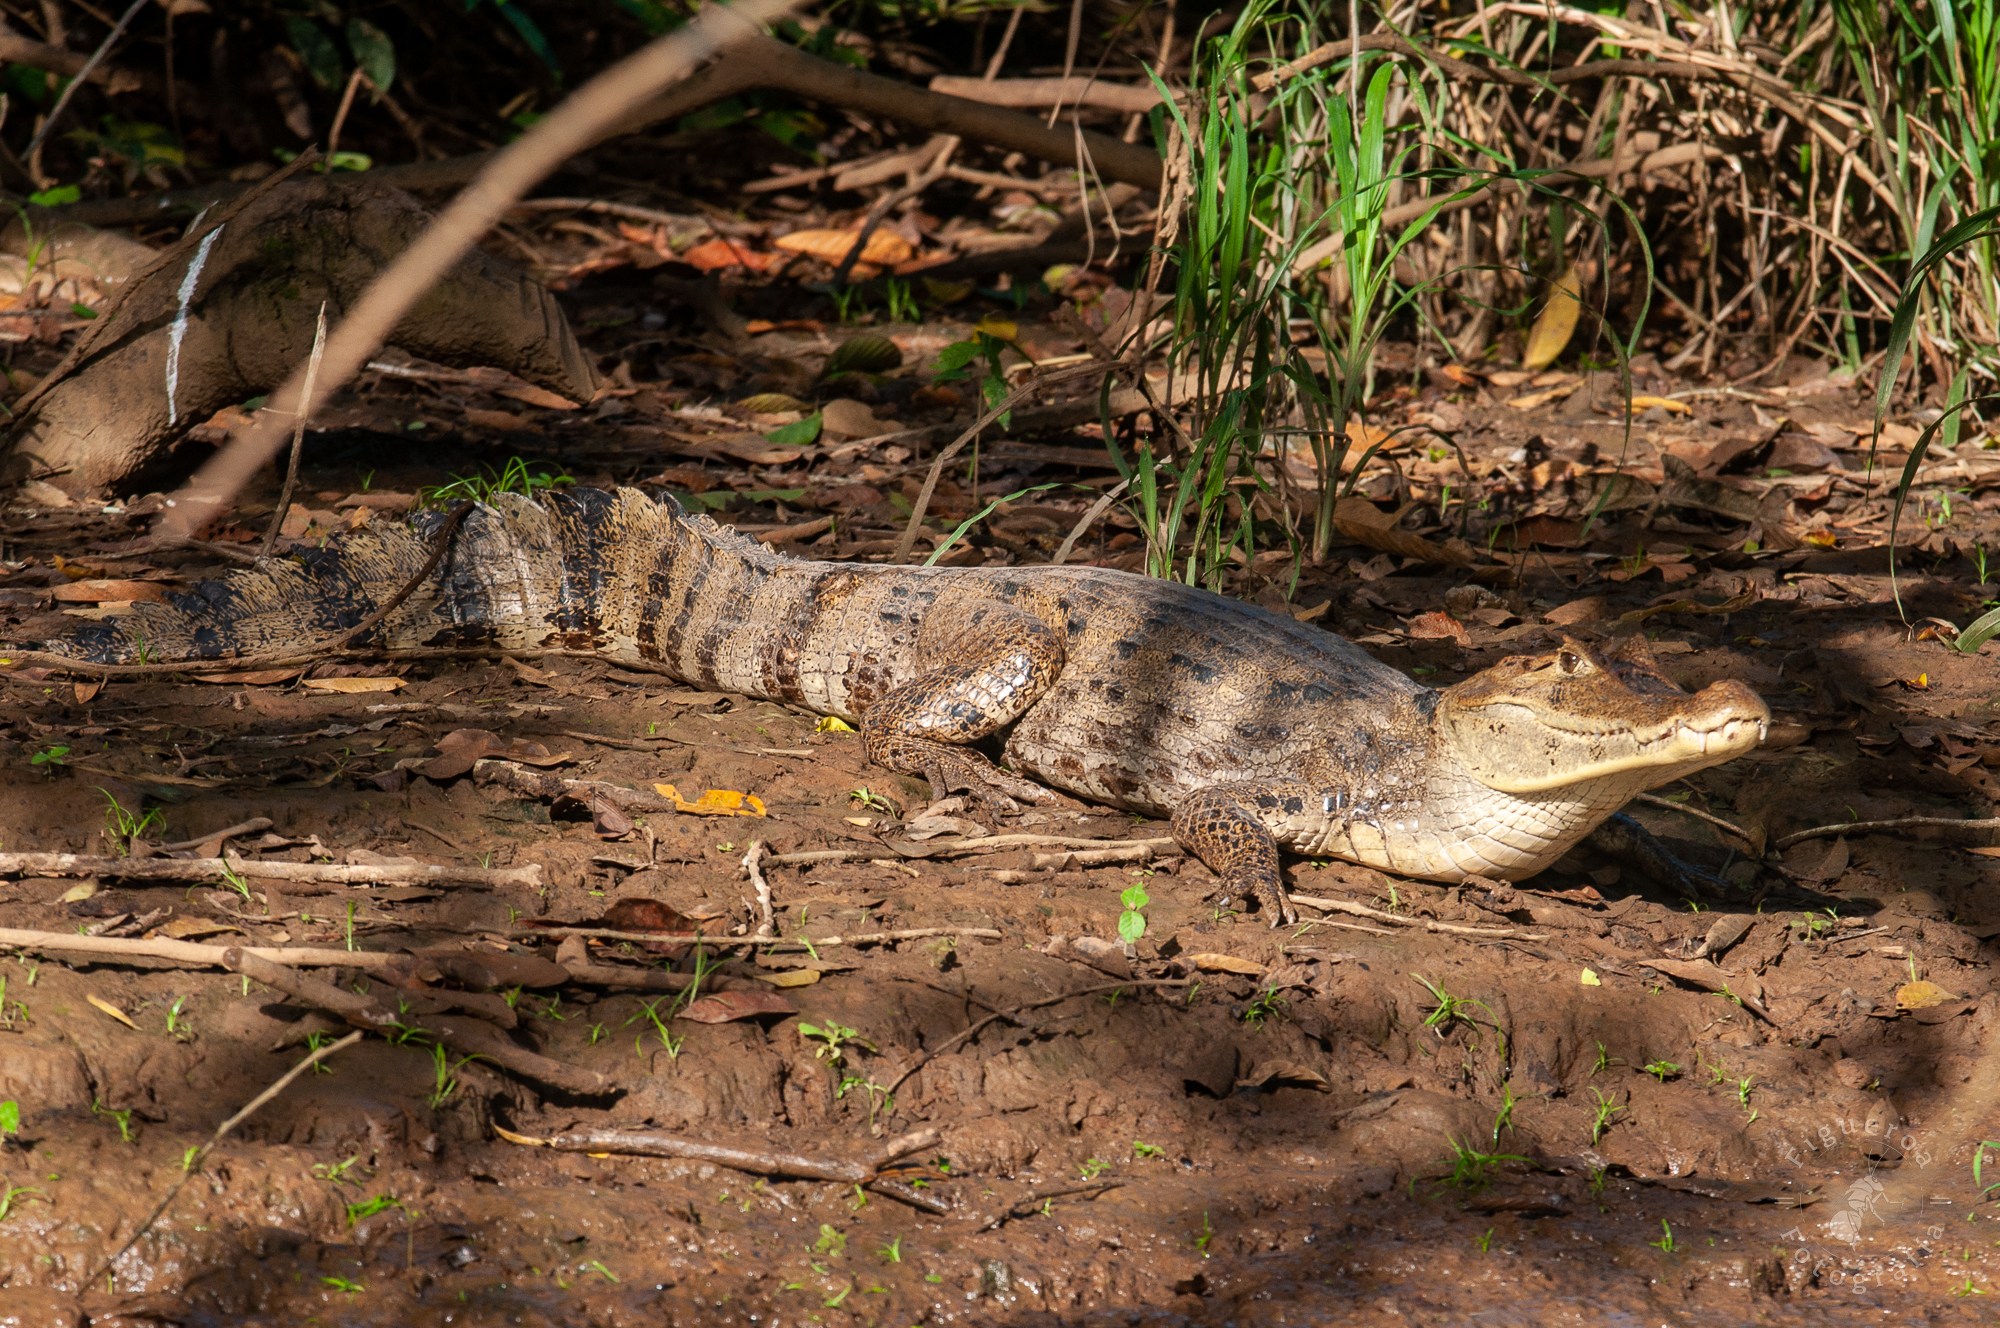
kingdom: Animalia
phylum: Chordata
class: Crocodylia
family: Alligatoridae
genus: Caiman
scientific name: Caiman crocodilus
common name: Common caiman
